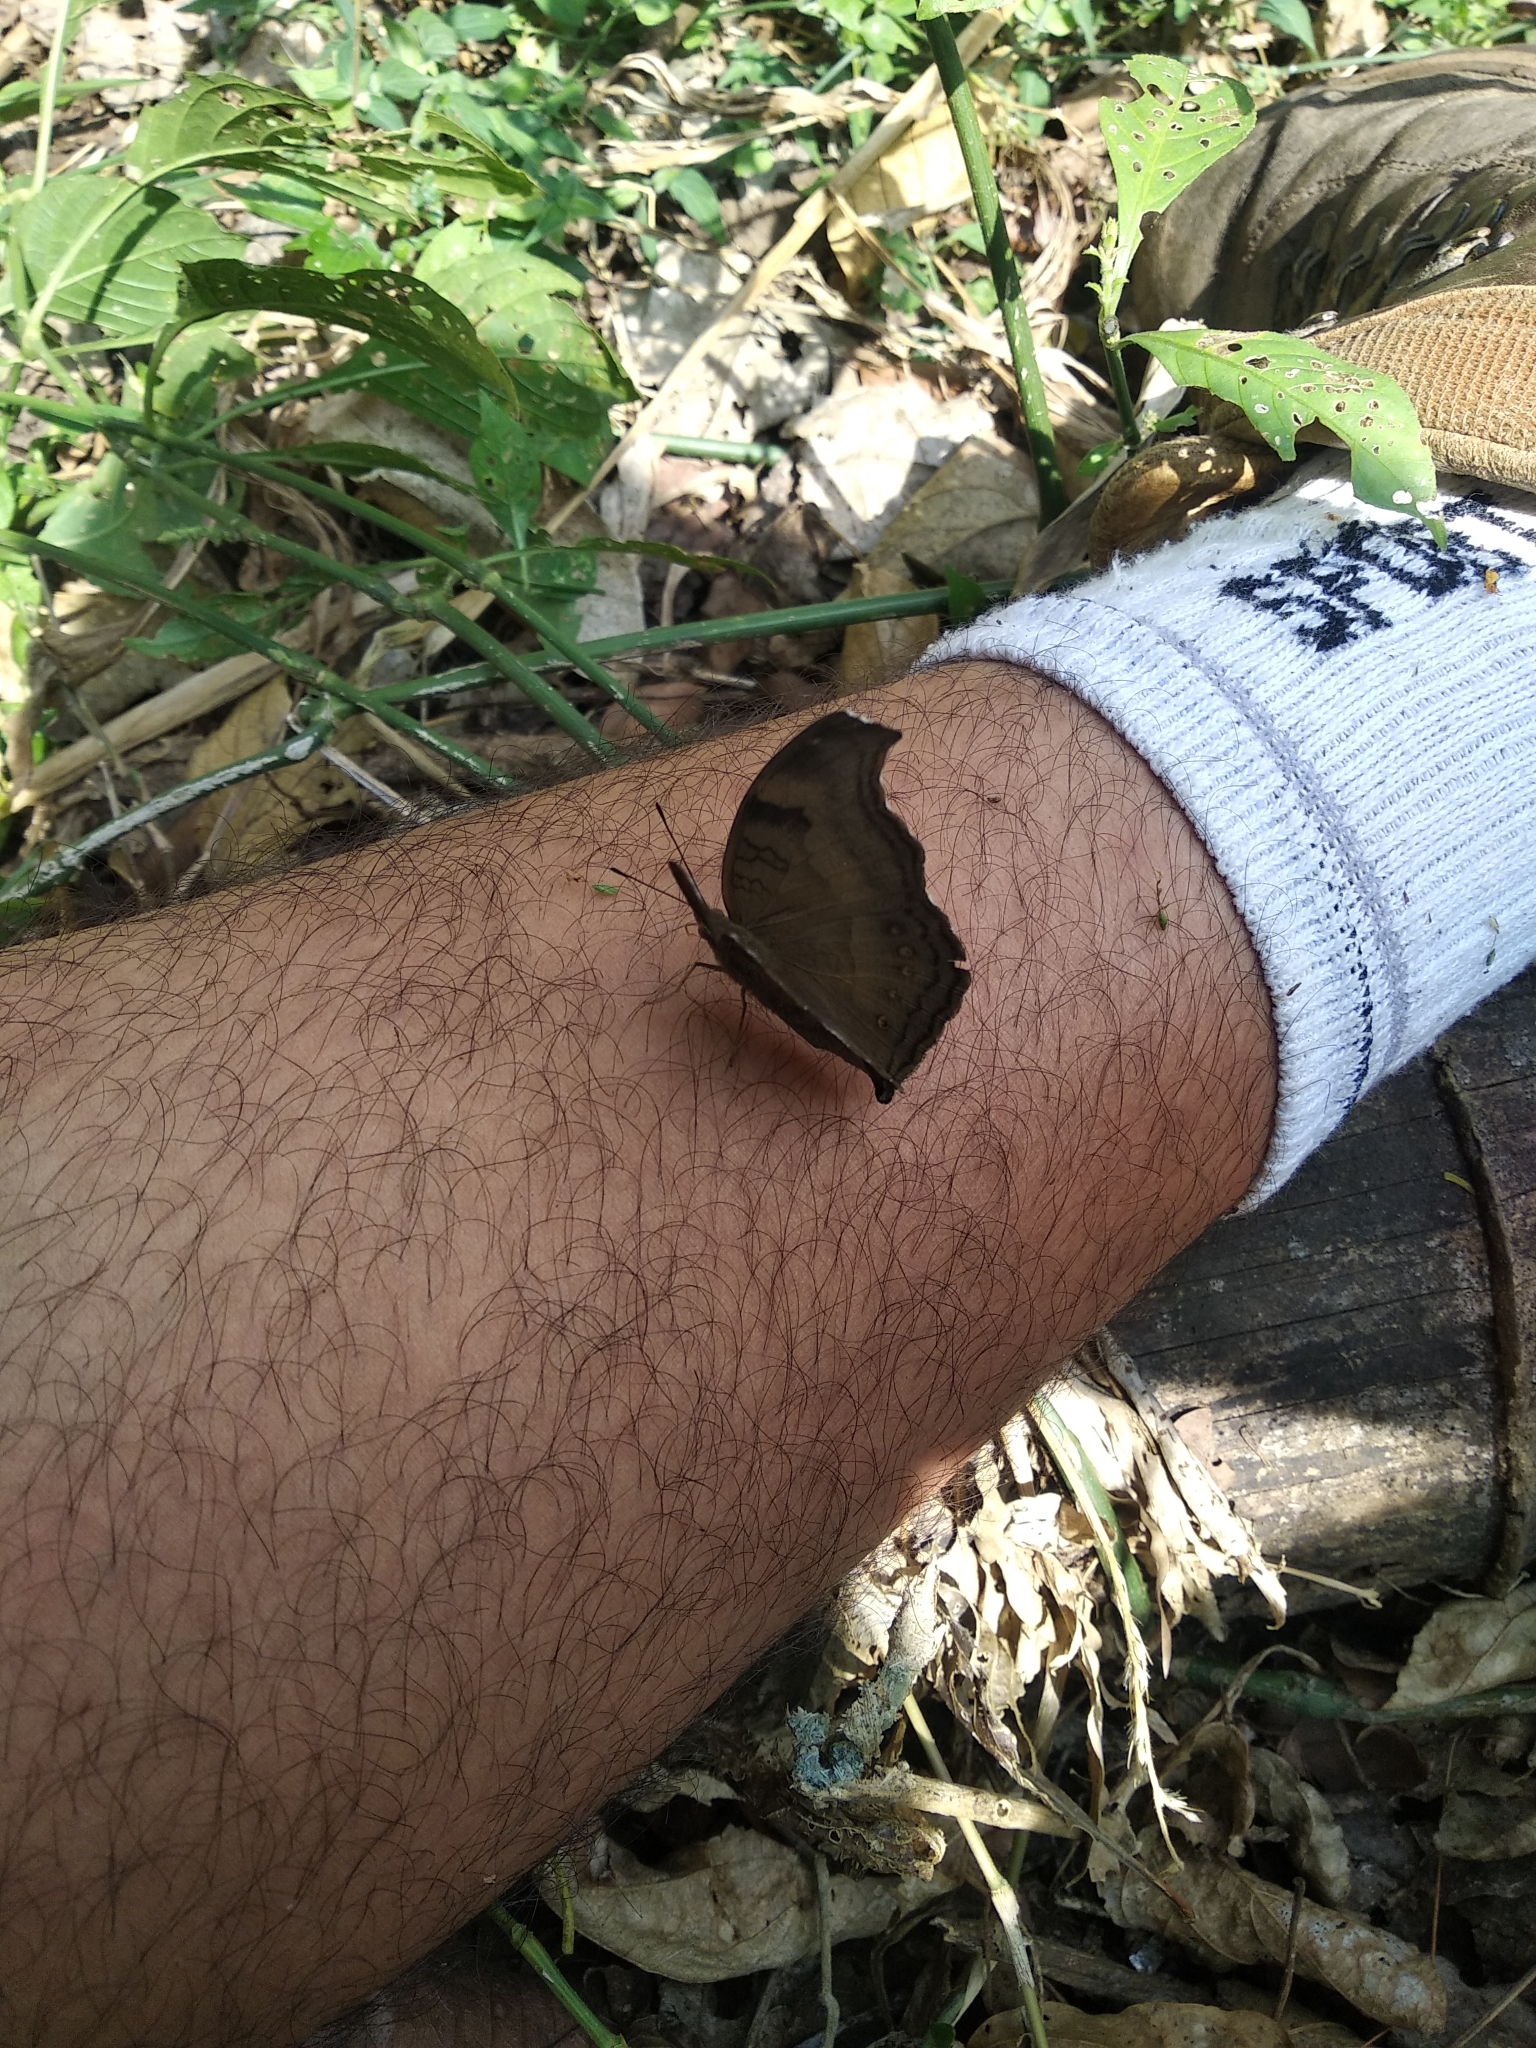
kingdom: Animalia
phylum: Arthropoda
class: Insecta
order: Lepidoptera
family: Nymphalidae
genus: Junonia
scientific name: Junonia iphita
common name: Chocolate pansy
